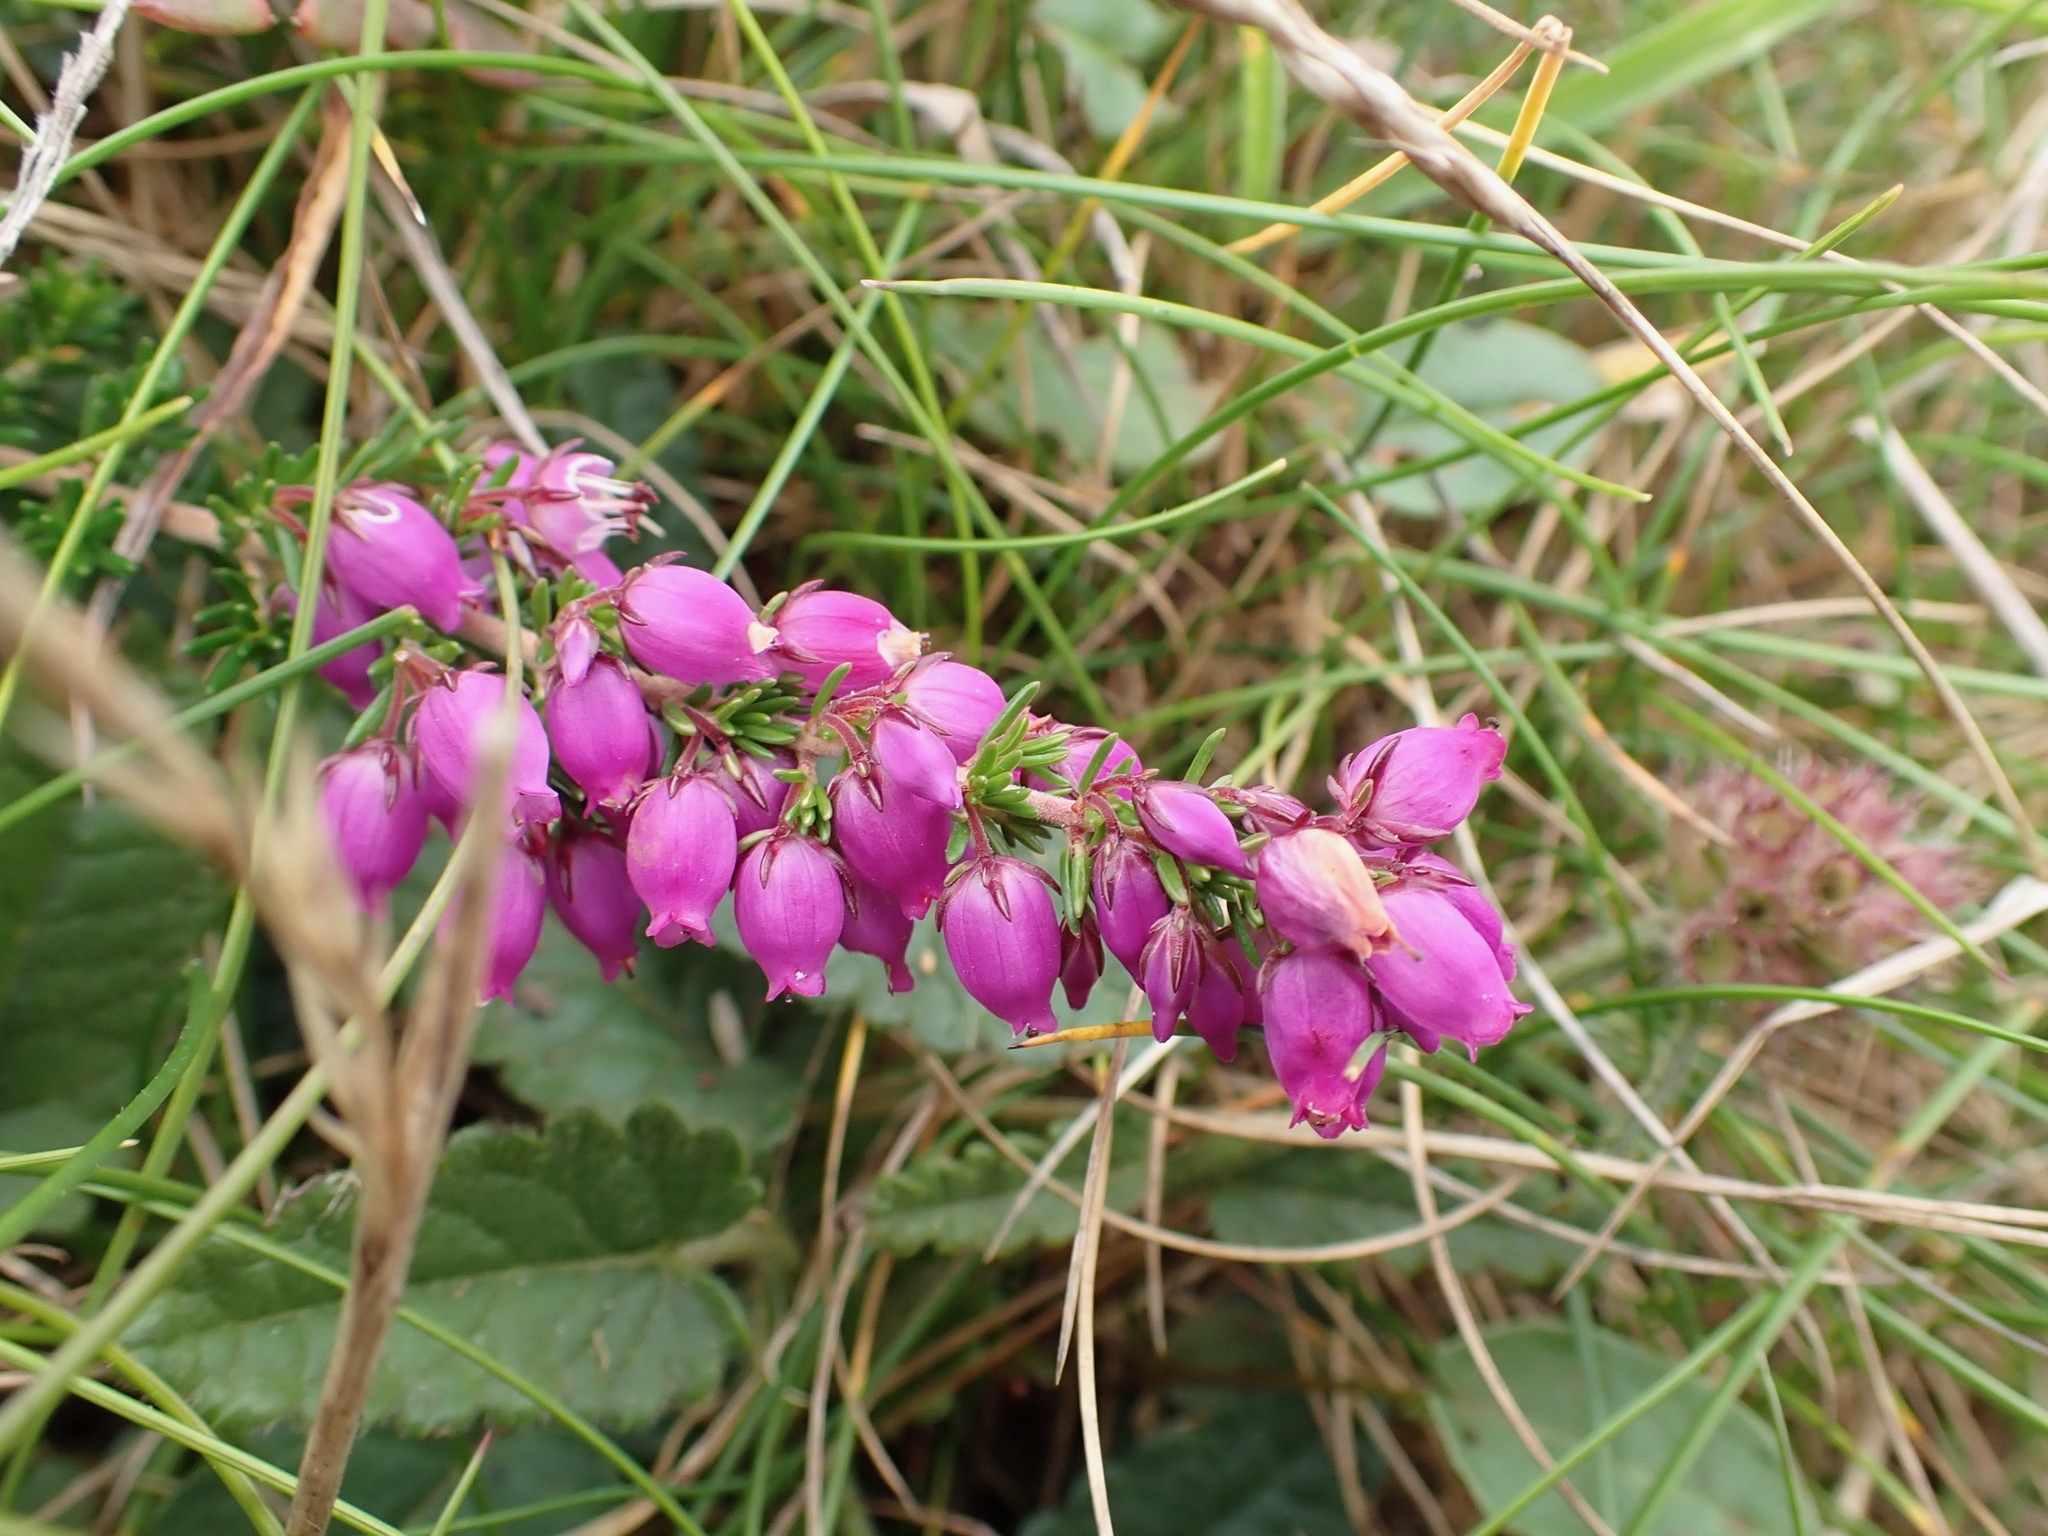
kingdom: Plantae
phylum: Tracheophyta
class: Magnoliopsida
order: Ericales
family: Ericaceae
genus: Erica
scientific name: Erica cinerea
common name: Bell heather
